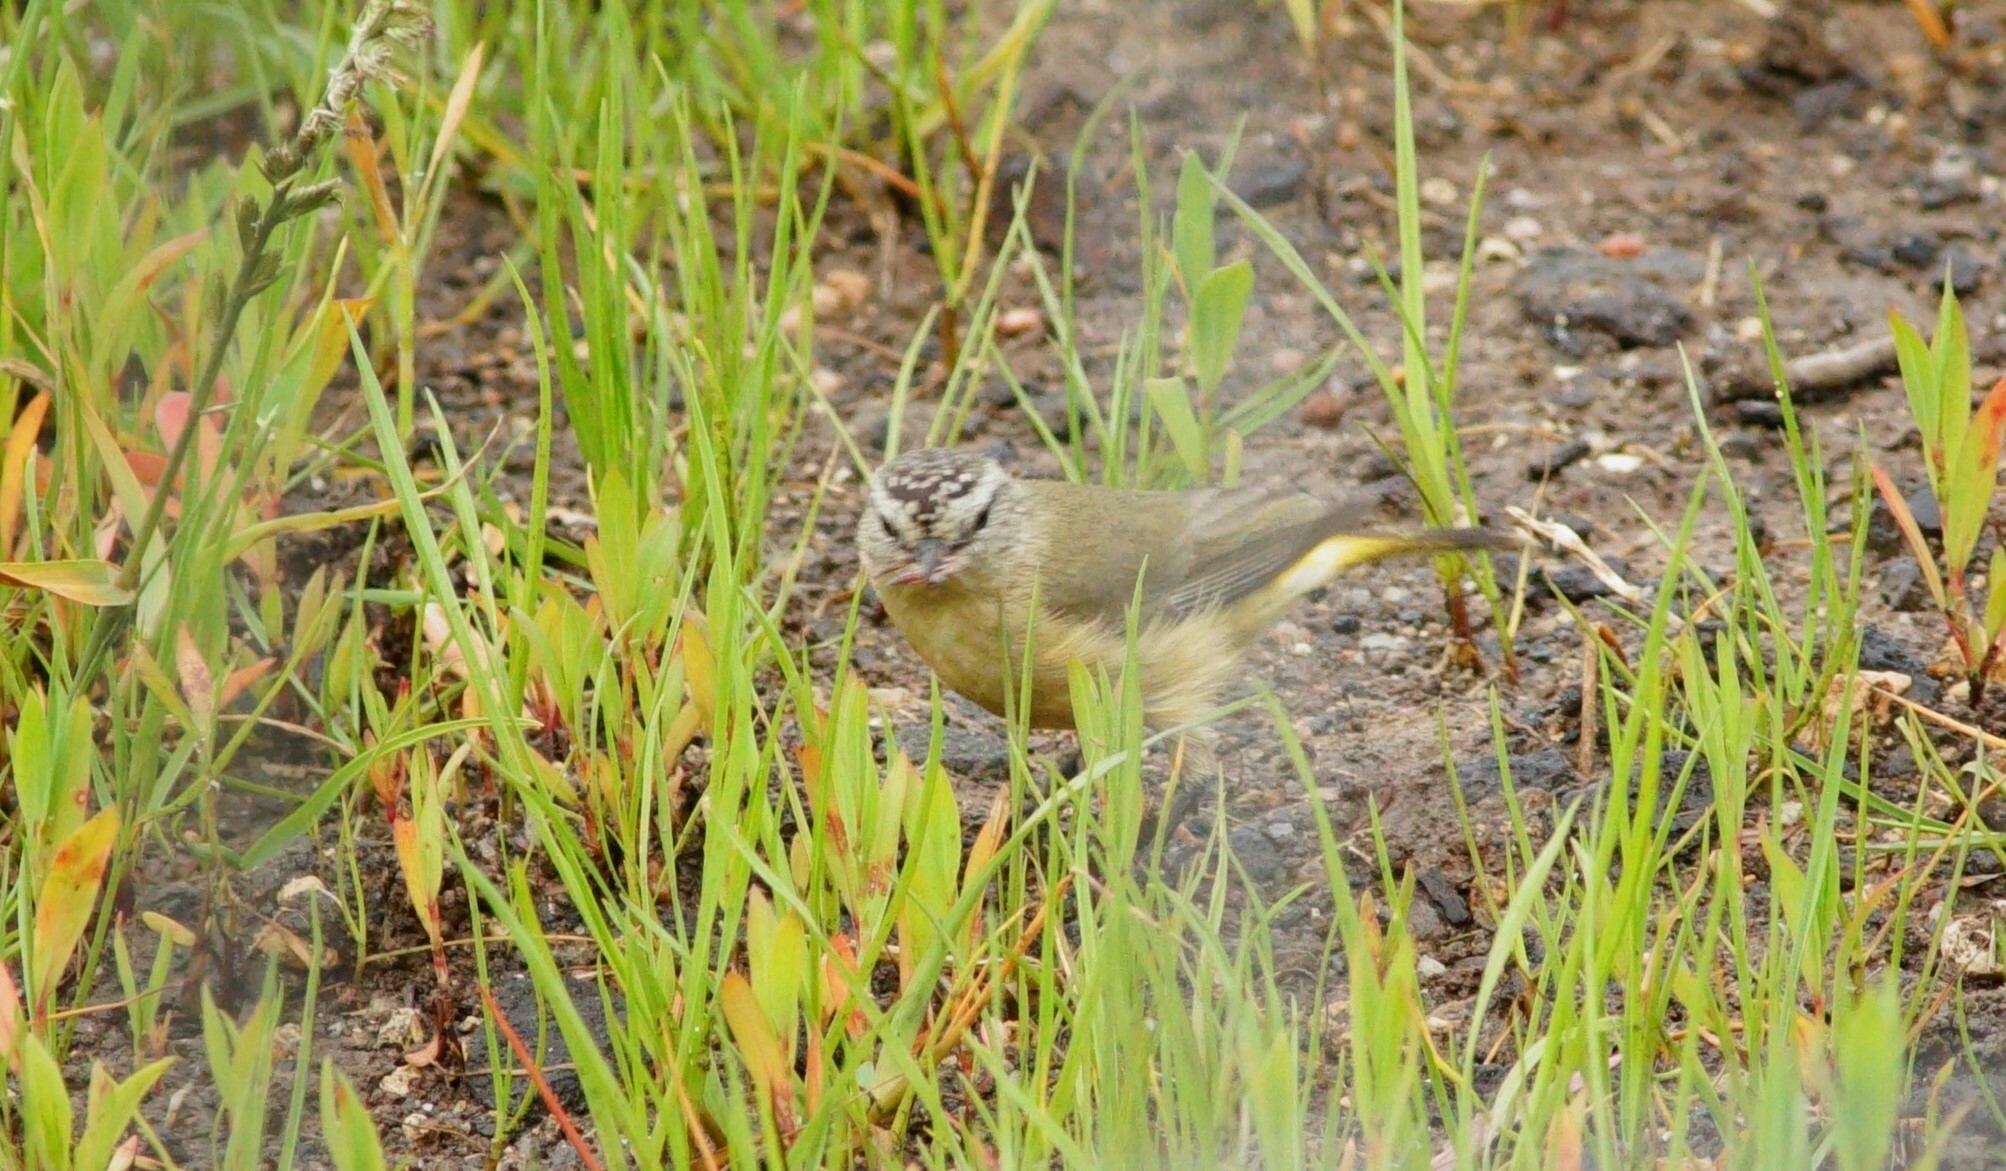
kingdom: Animalia
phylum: Chordata
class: Aves
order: Passeriformes
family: Acanthizidae
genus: Acanthiza
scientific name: Acanthiza chrysorrhoa
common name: Yellow-rumped thornbill
